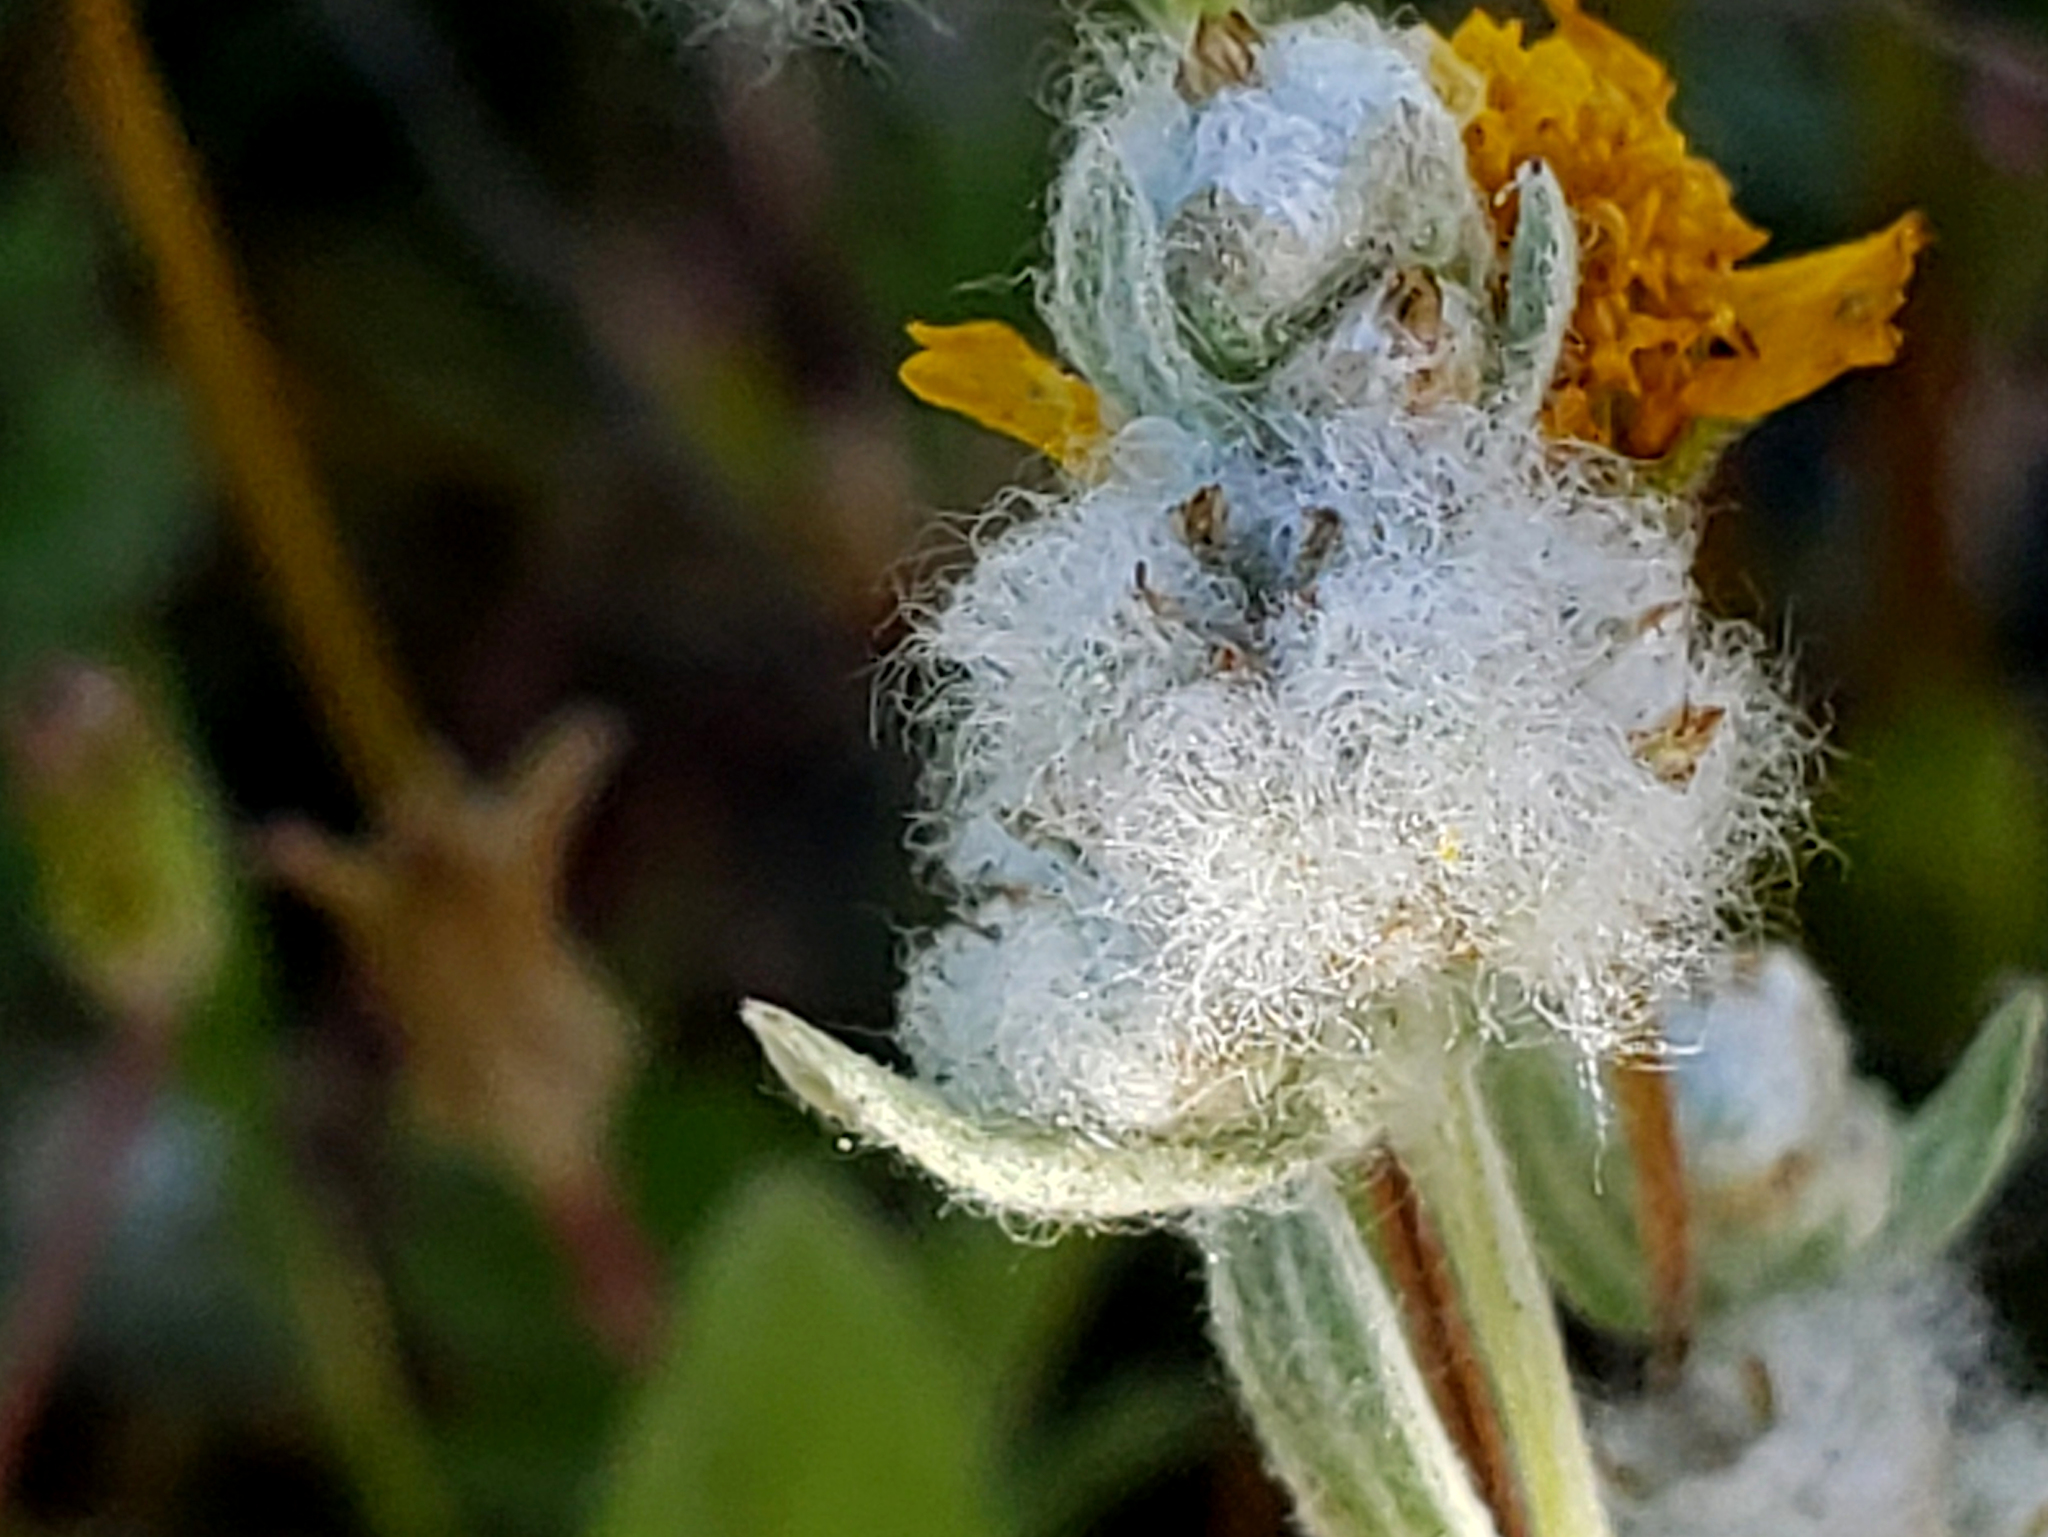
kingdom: Plantae
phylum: Tracheophyta
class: Magnoliopsida
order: Asterales
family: Asteraceae
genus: Bombycilaena
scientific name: Bombycilaena californica
